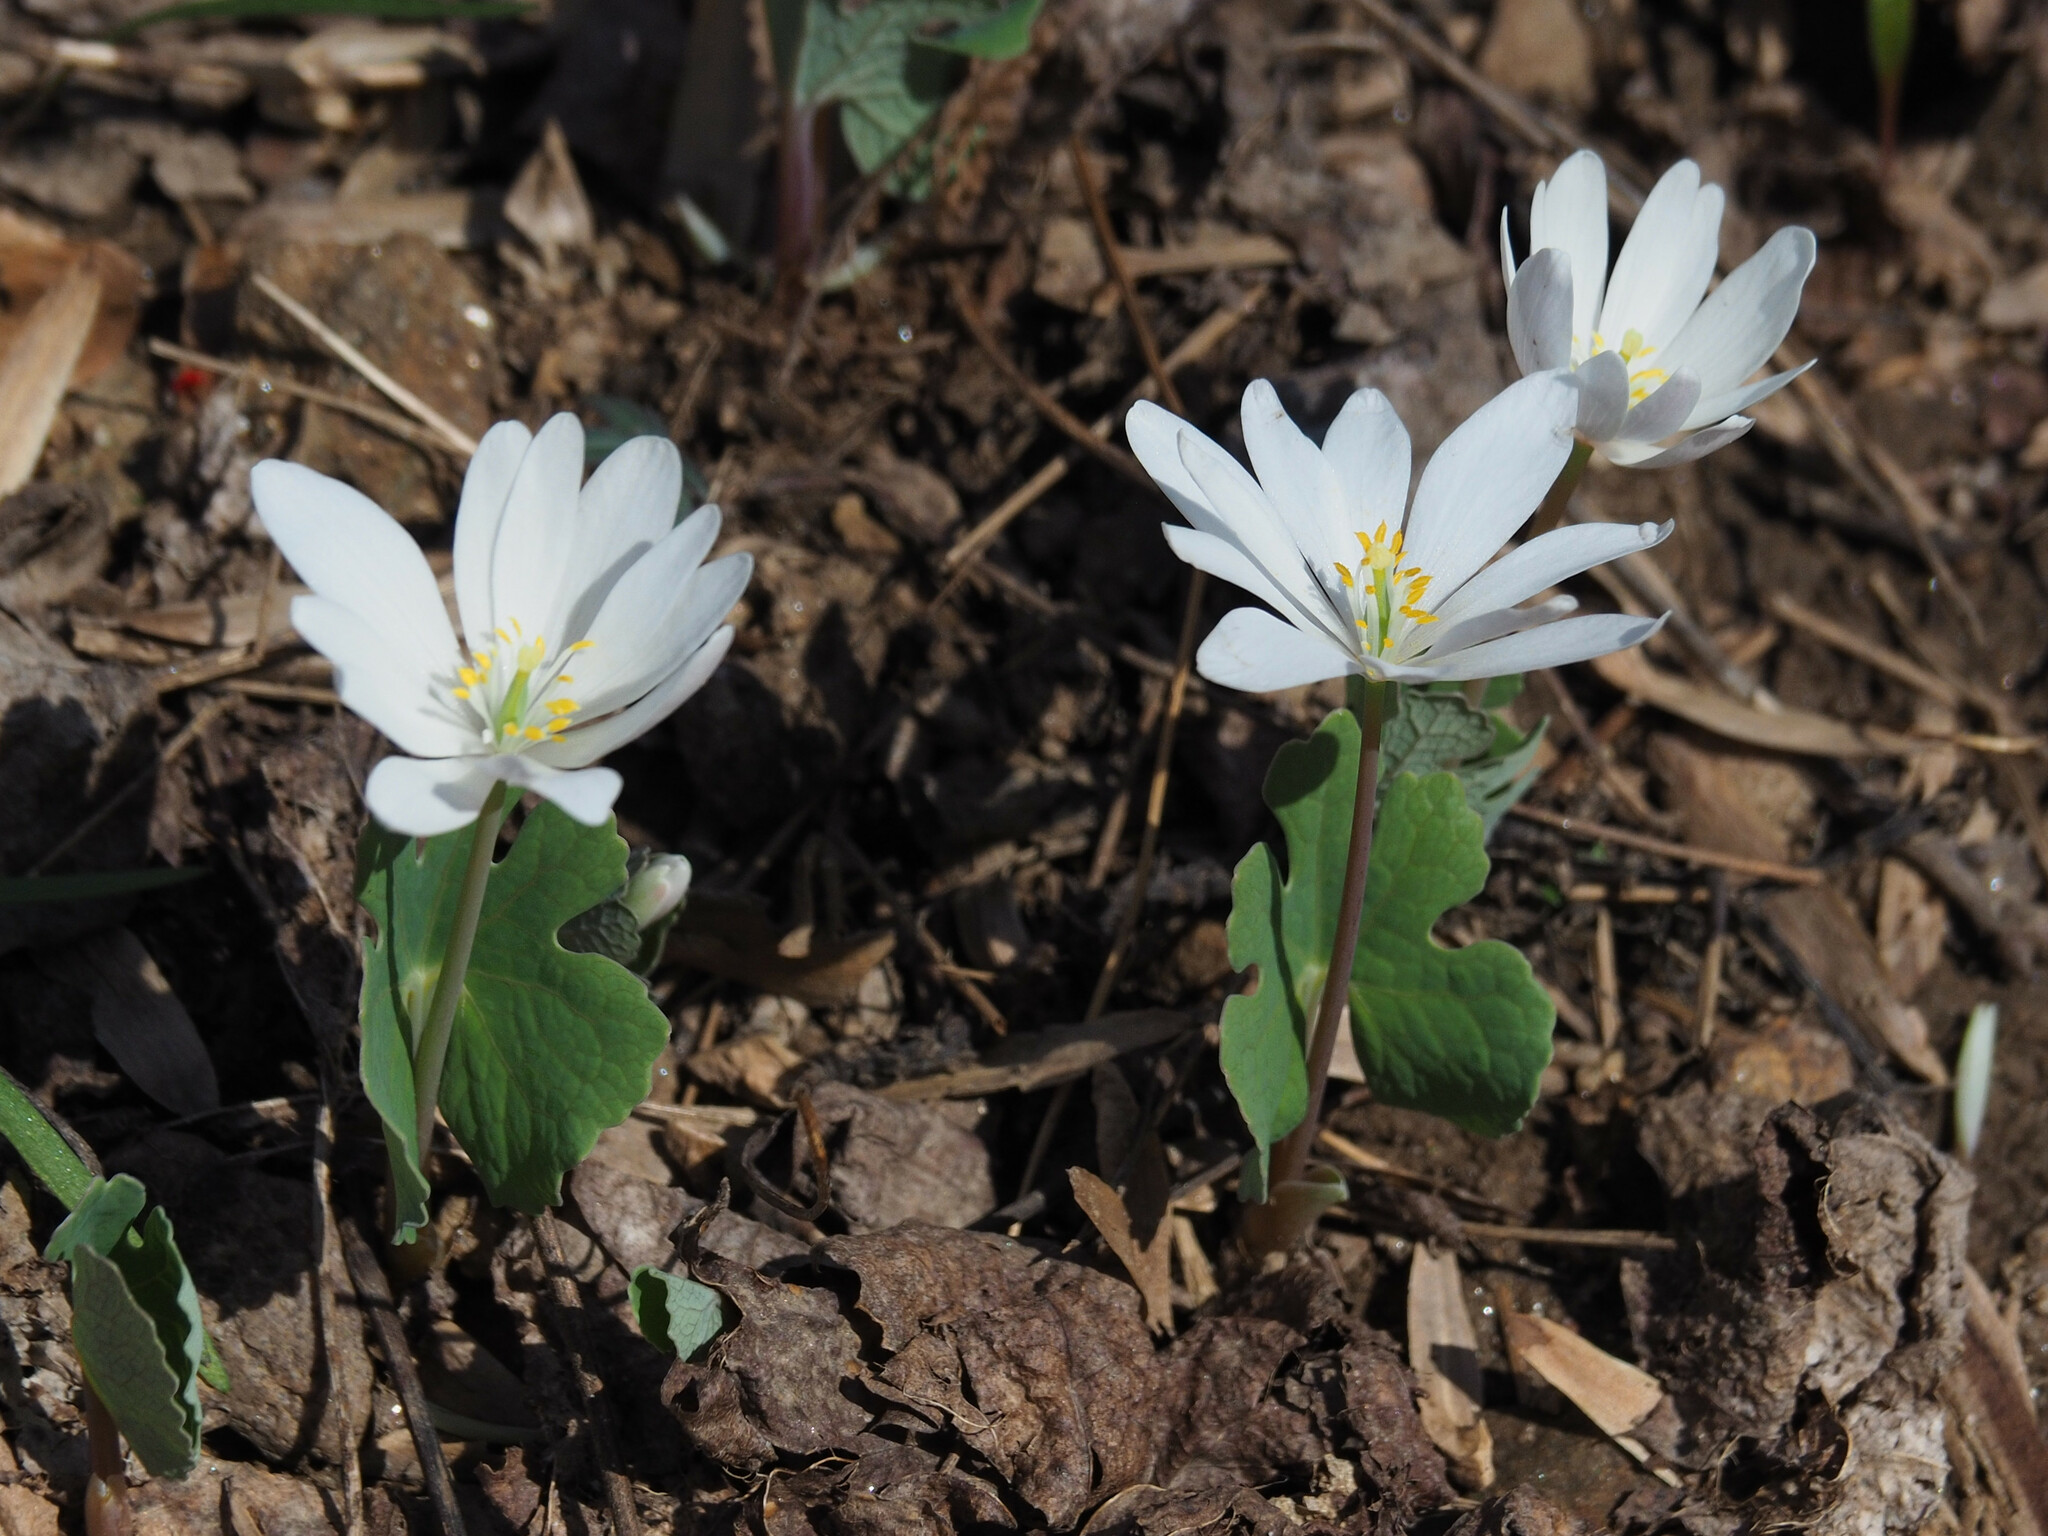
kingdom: Plantae
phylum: Tracheophyta
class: Magnoliopsida
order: Ranunculales
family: Papaveraceae
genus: Sanguinaria
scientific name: Sanguinaria canadensis
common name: Bloodroot
